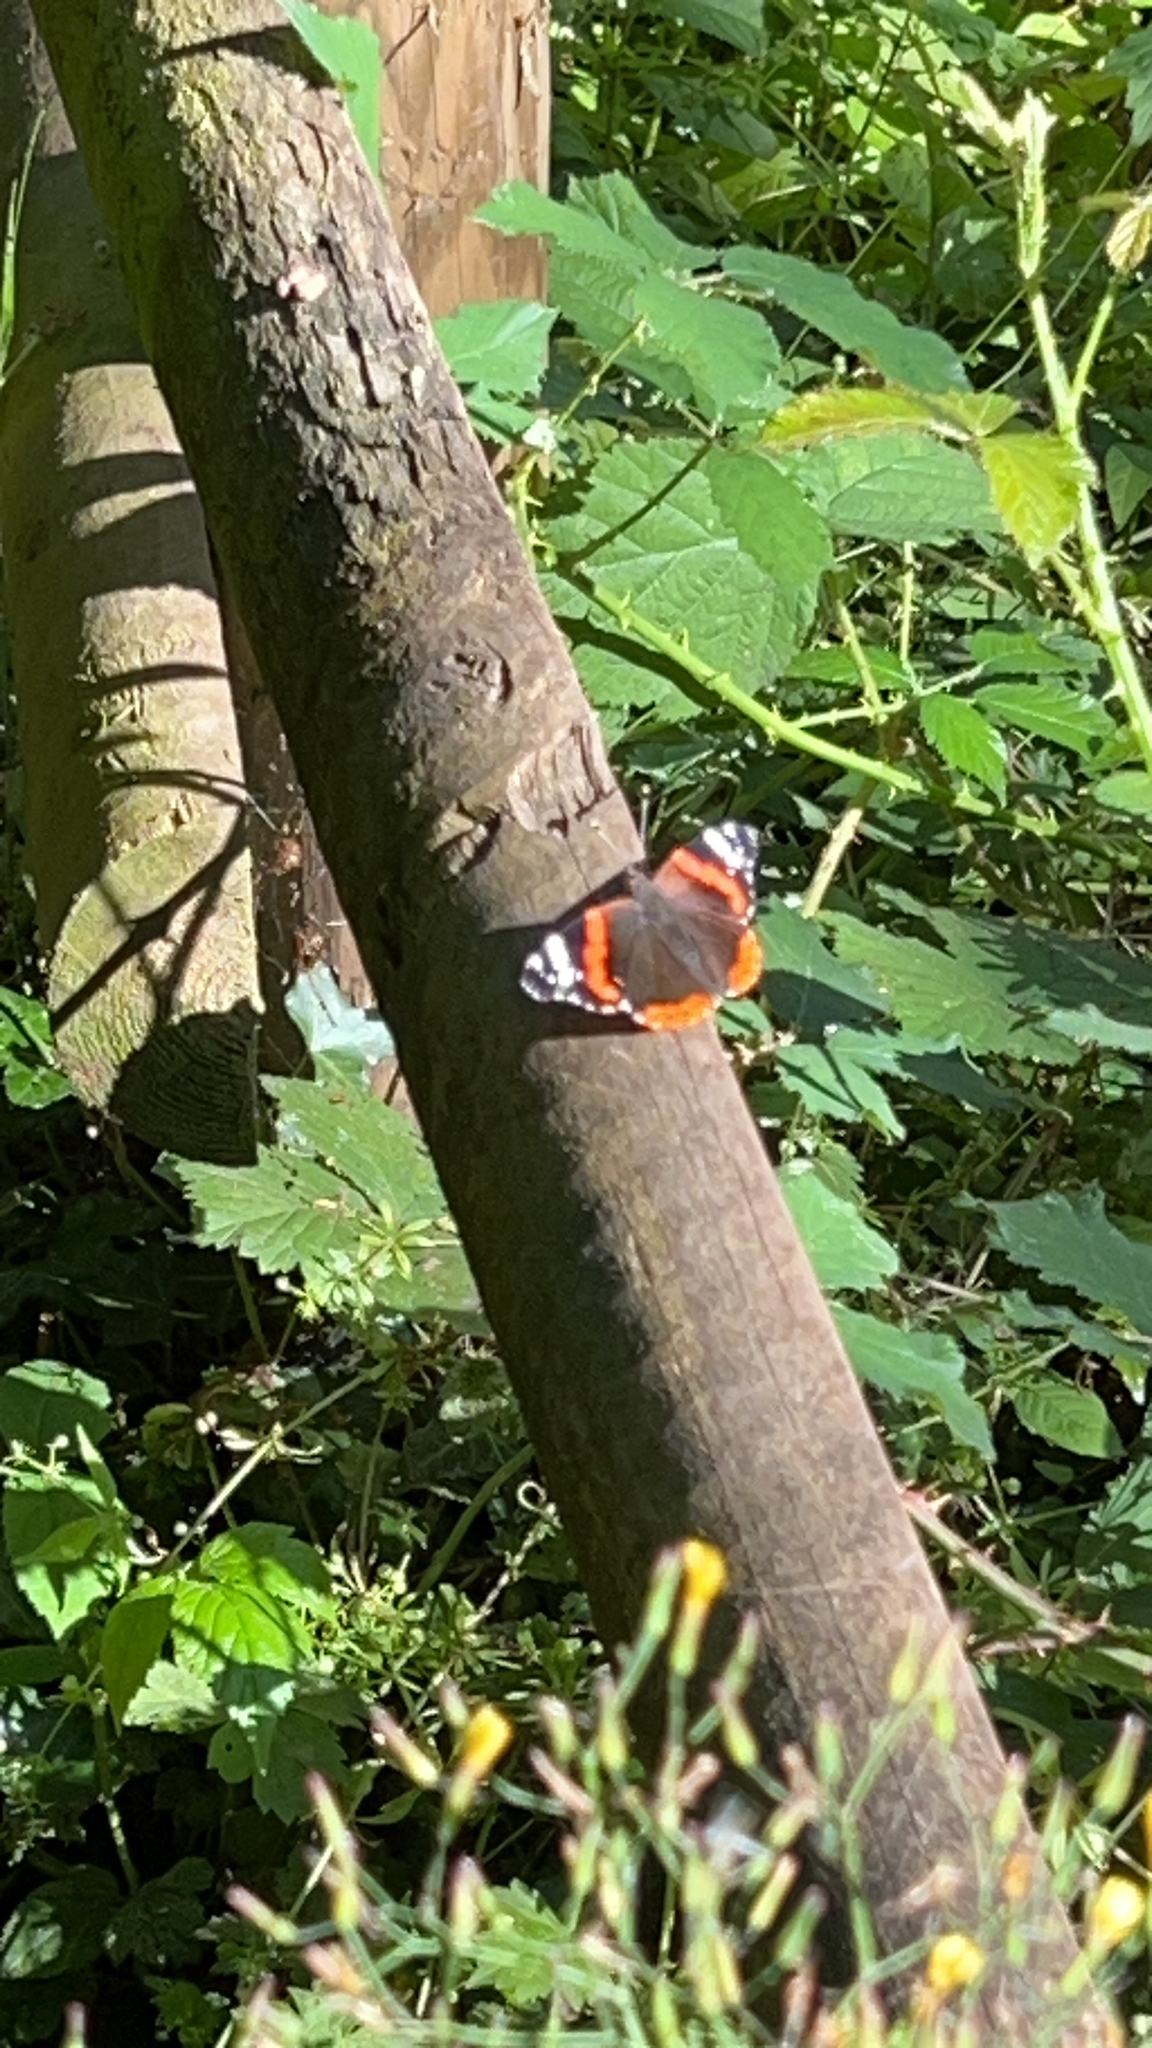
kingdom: Animalia
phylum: Arthropoda
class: Insecta
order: Lepidoptera
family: Nymphalidae
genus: Vanessa
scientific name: Vanessa atalanta
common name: Red admiral
